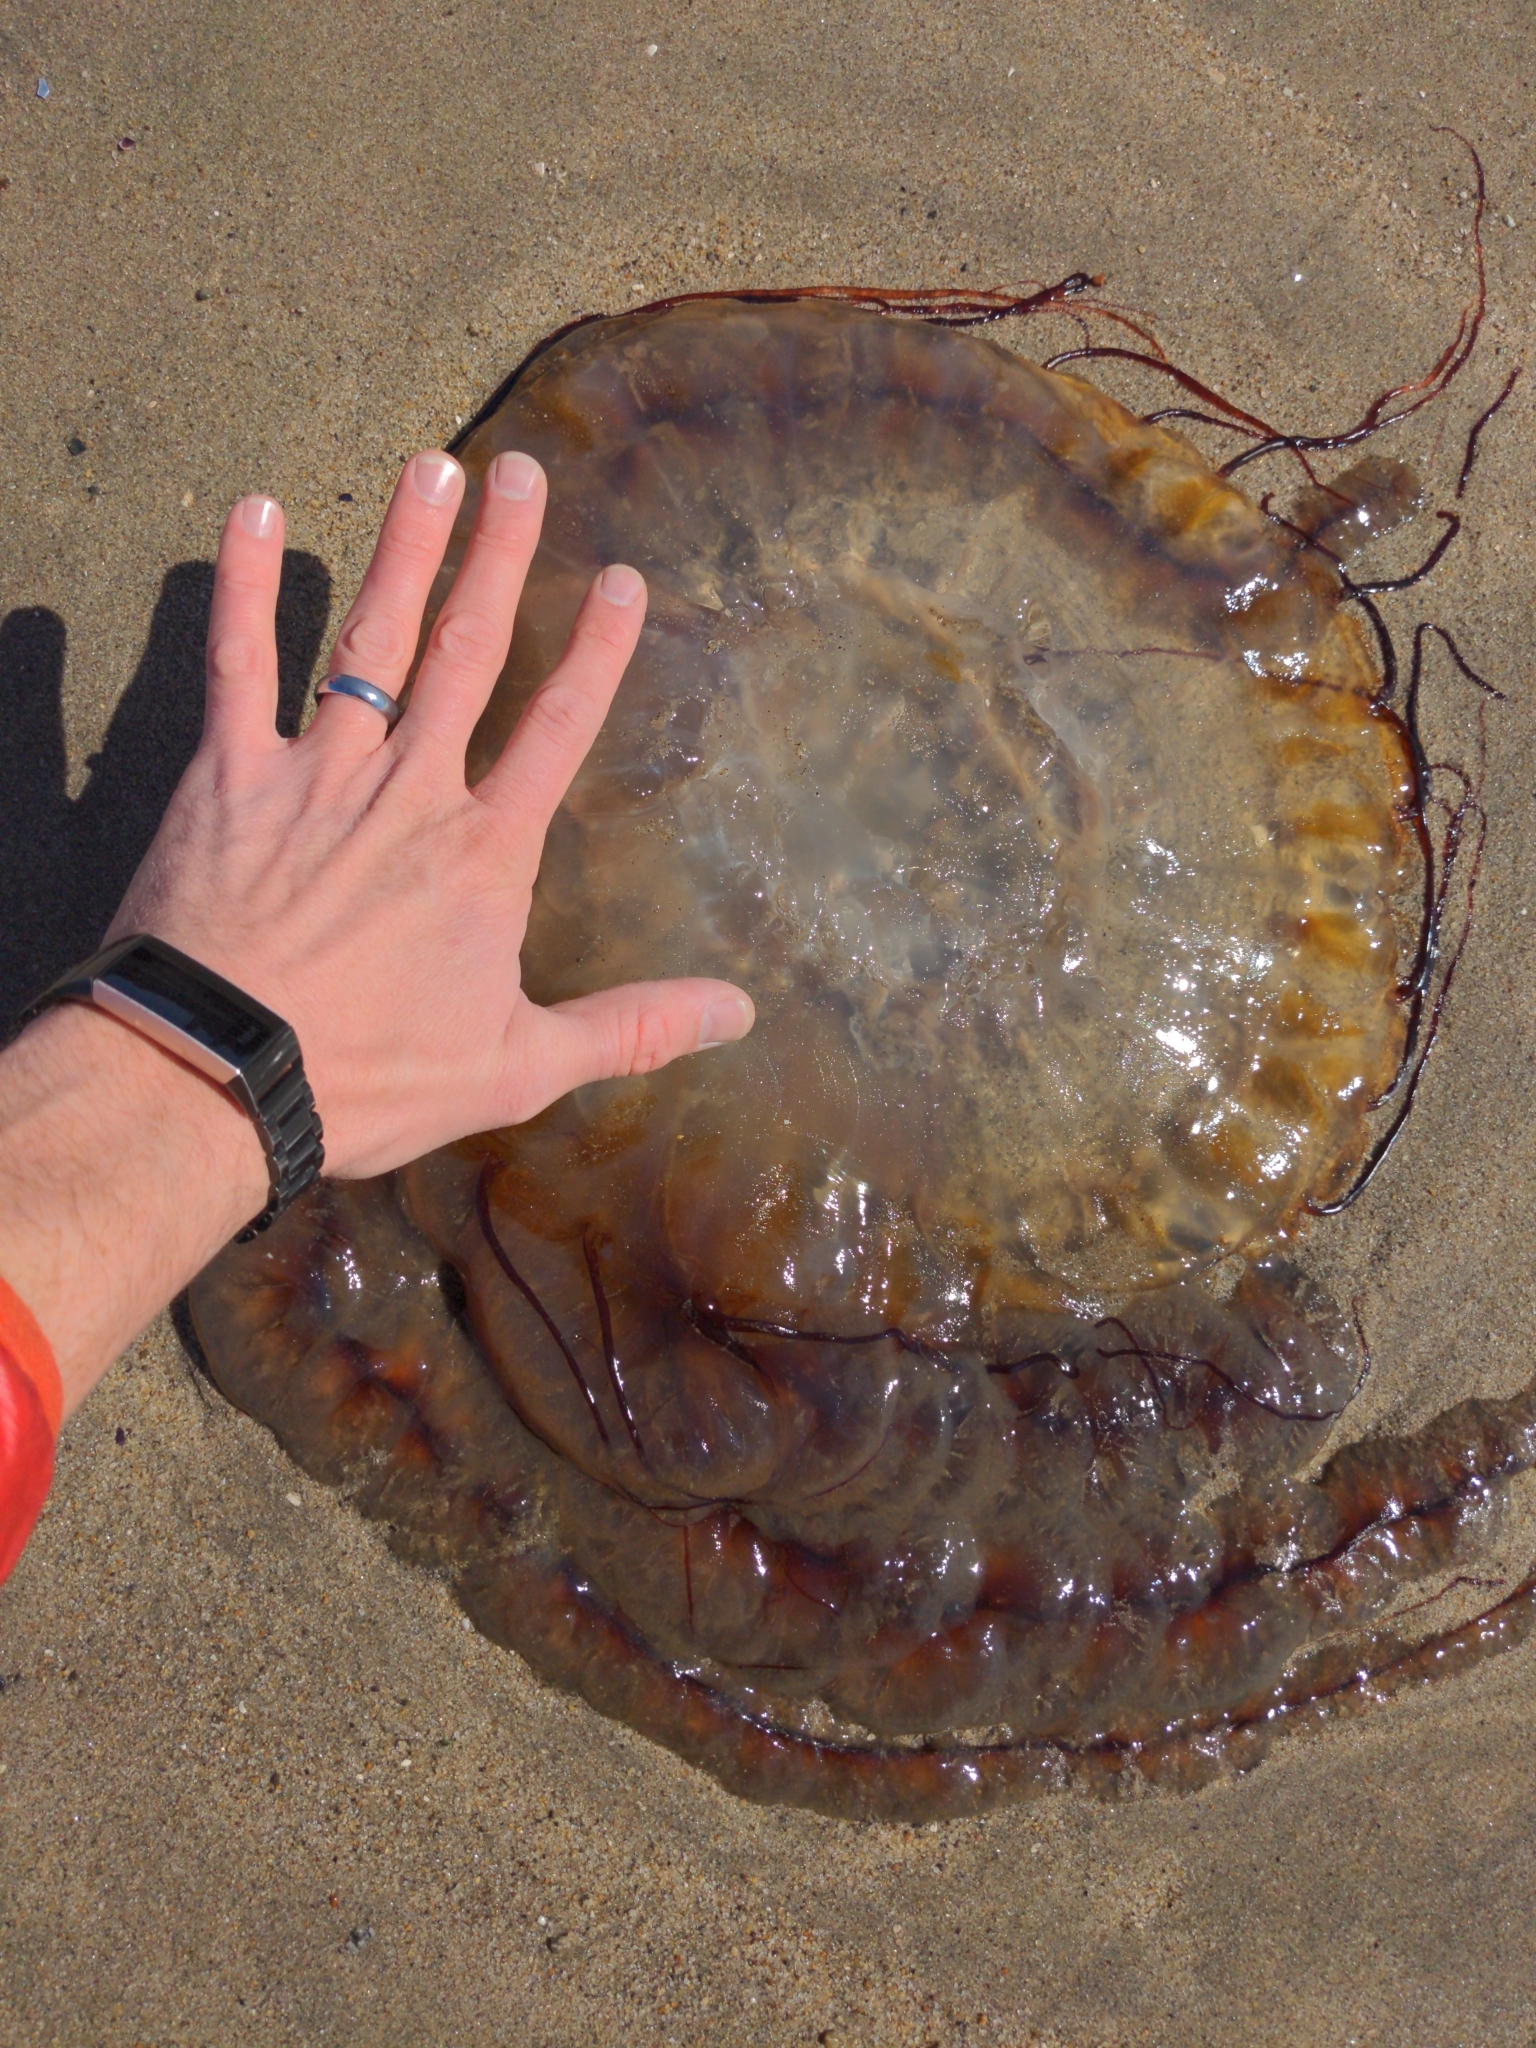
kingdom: Animalia
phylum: Cnidaria
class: Scyphozoa
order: Semaeostomeae
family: Pelagiidae
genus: Chrysaora
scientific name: Chrysaora fuscescens
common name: Sea nettle
